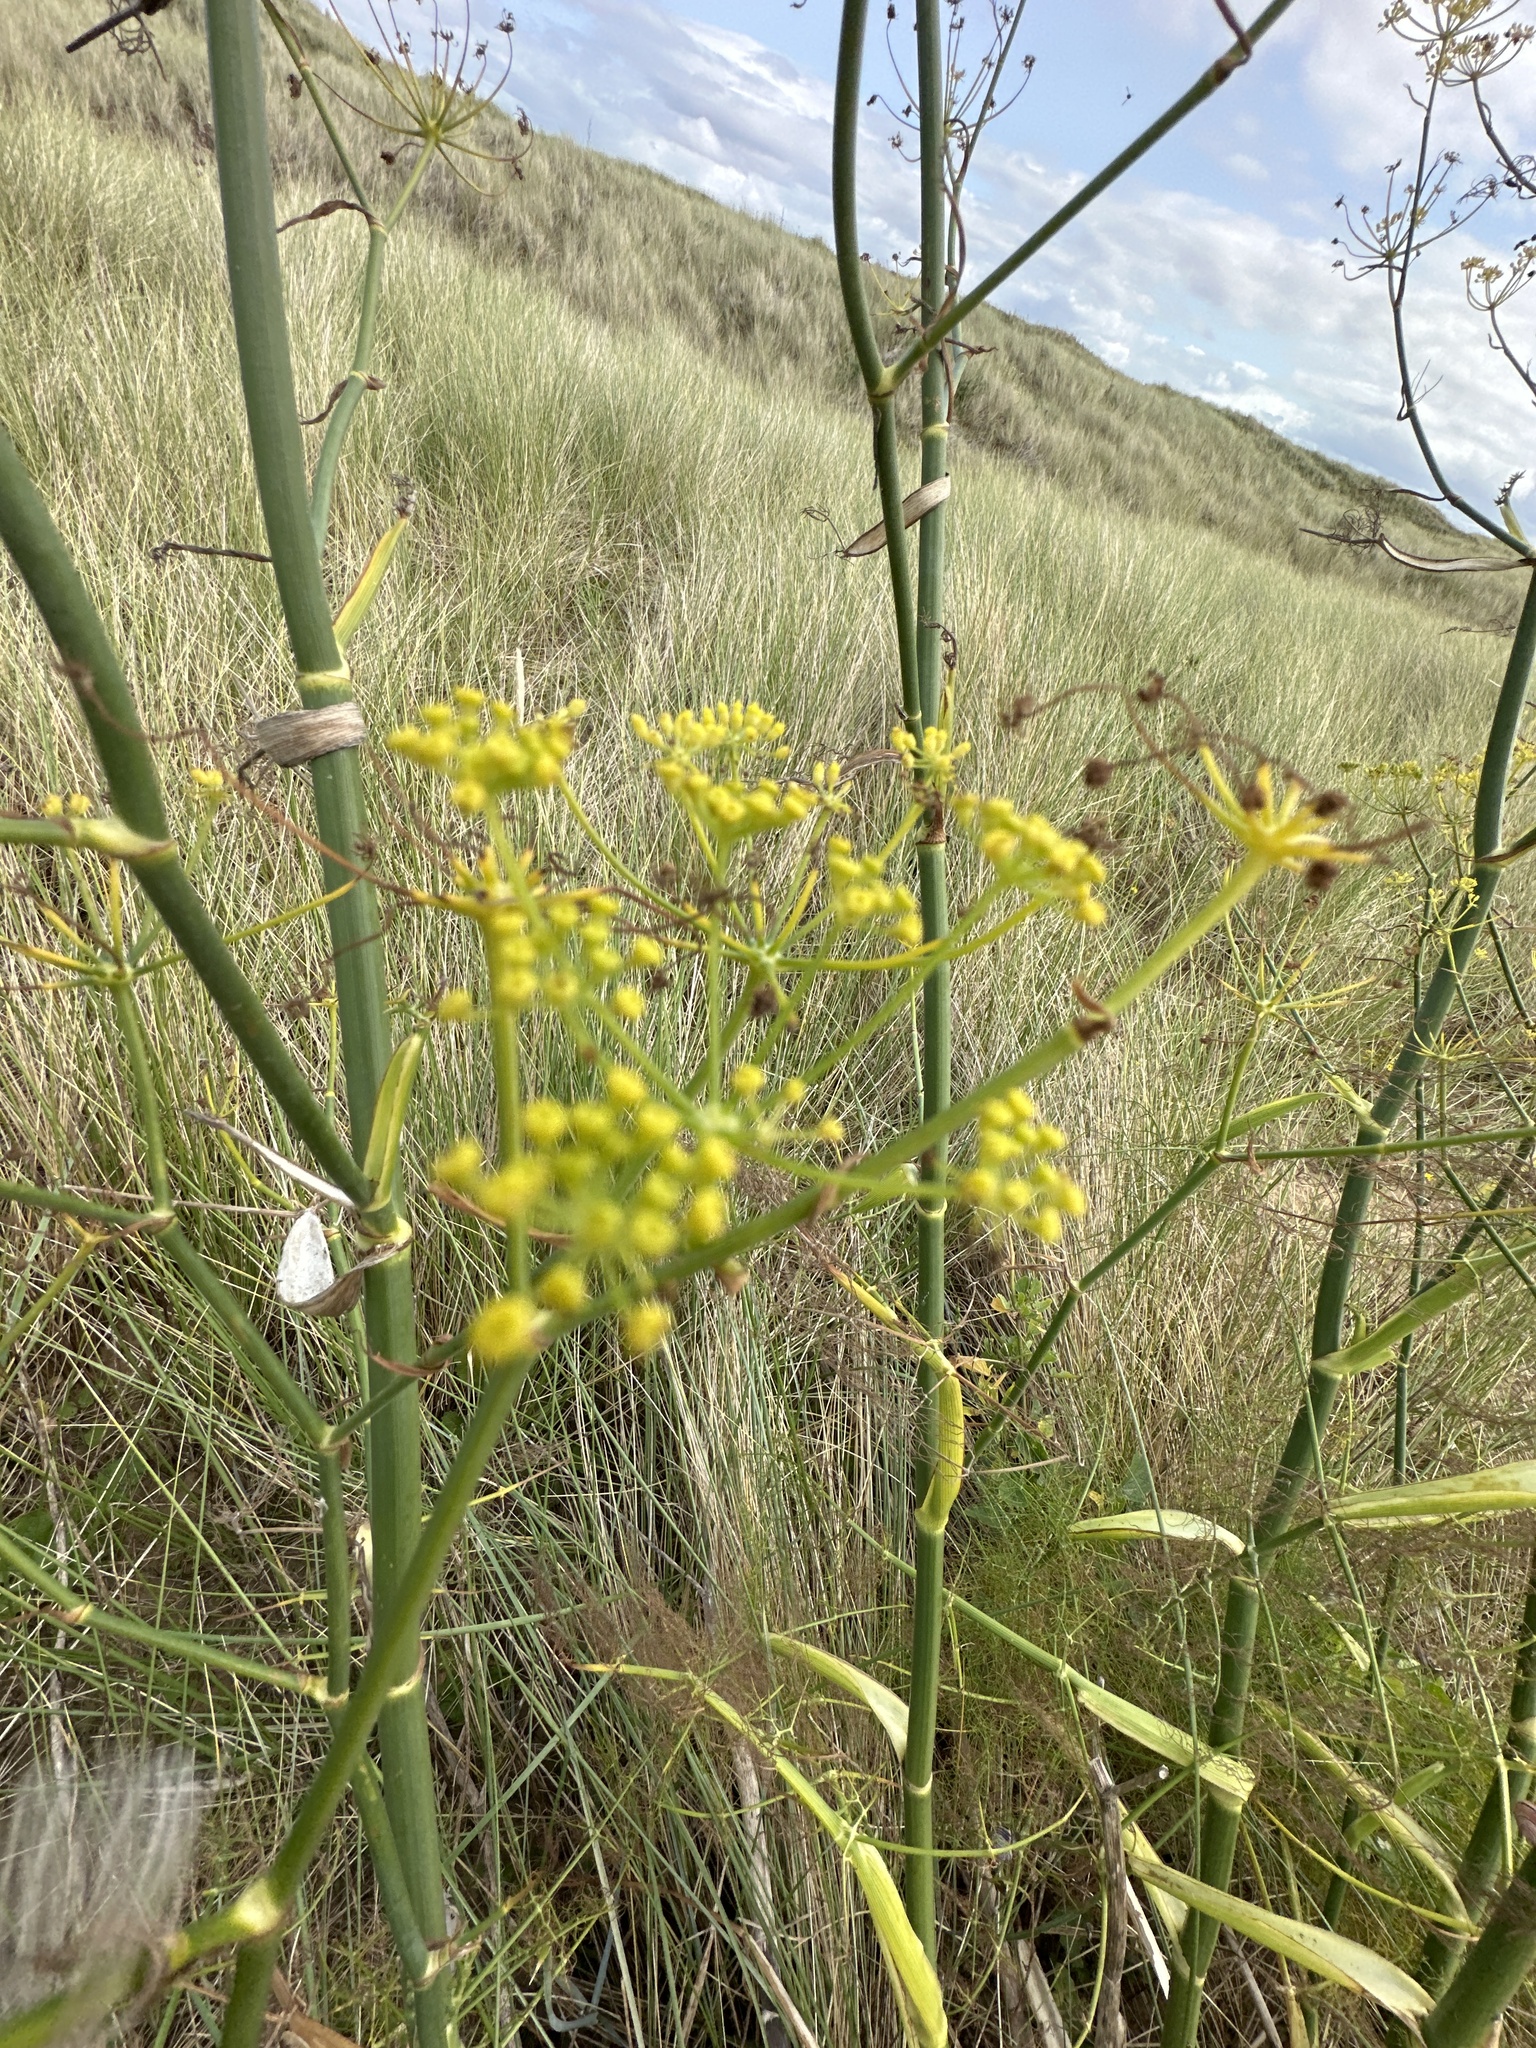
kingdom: Plantae
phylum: Tracheophyta
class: Magnoliopsida
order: Apiales
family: Apiaceae
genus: Foeniculum
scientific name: Foeniculum vulgare
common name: Fennel
